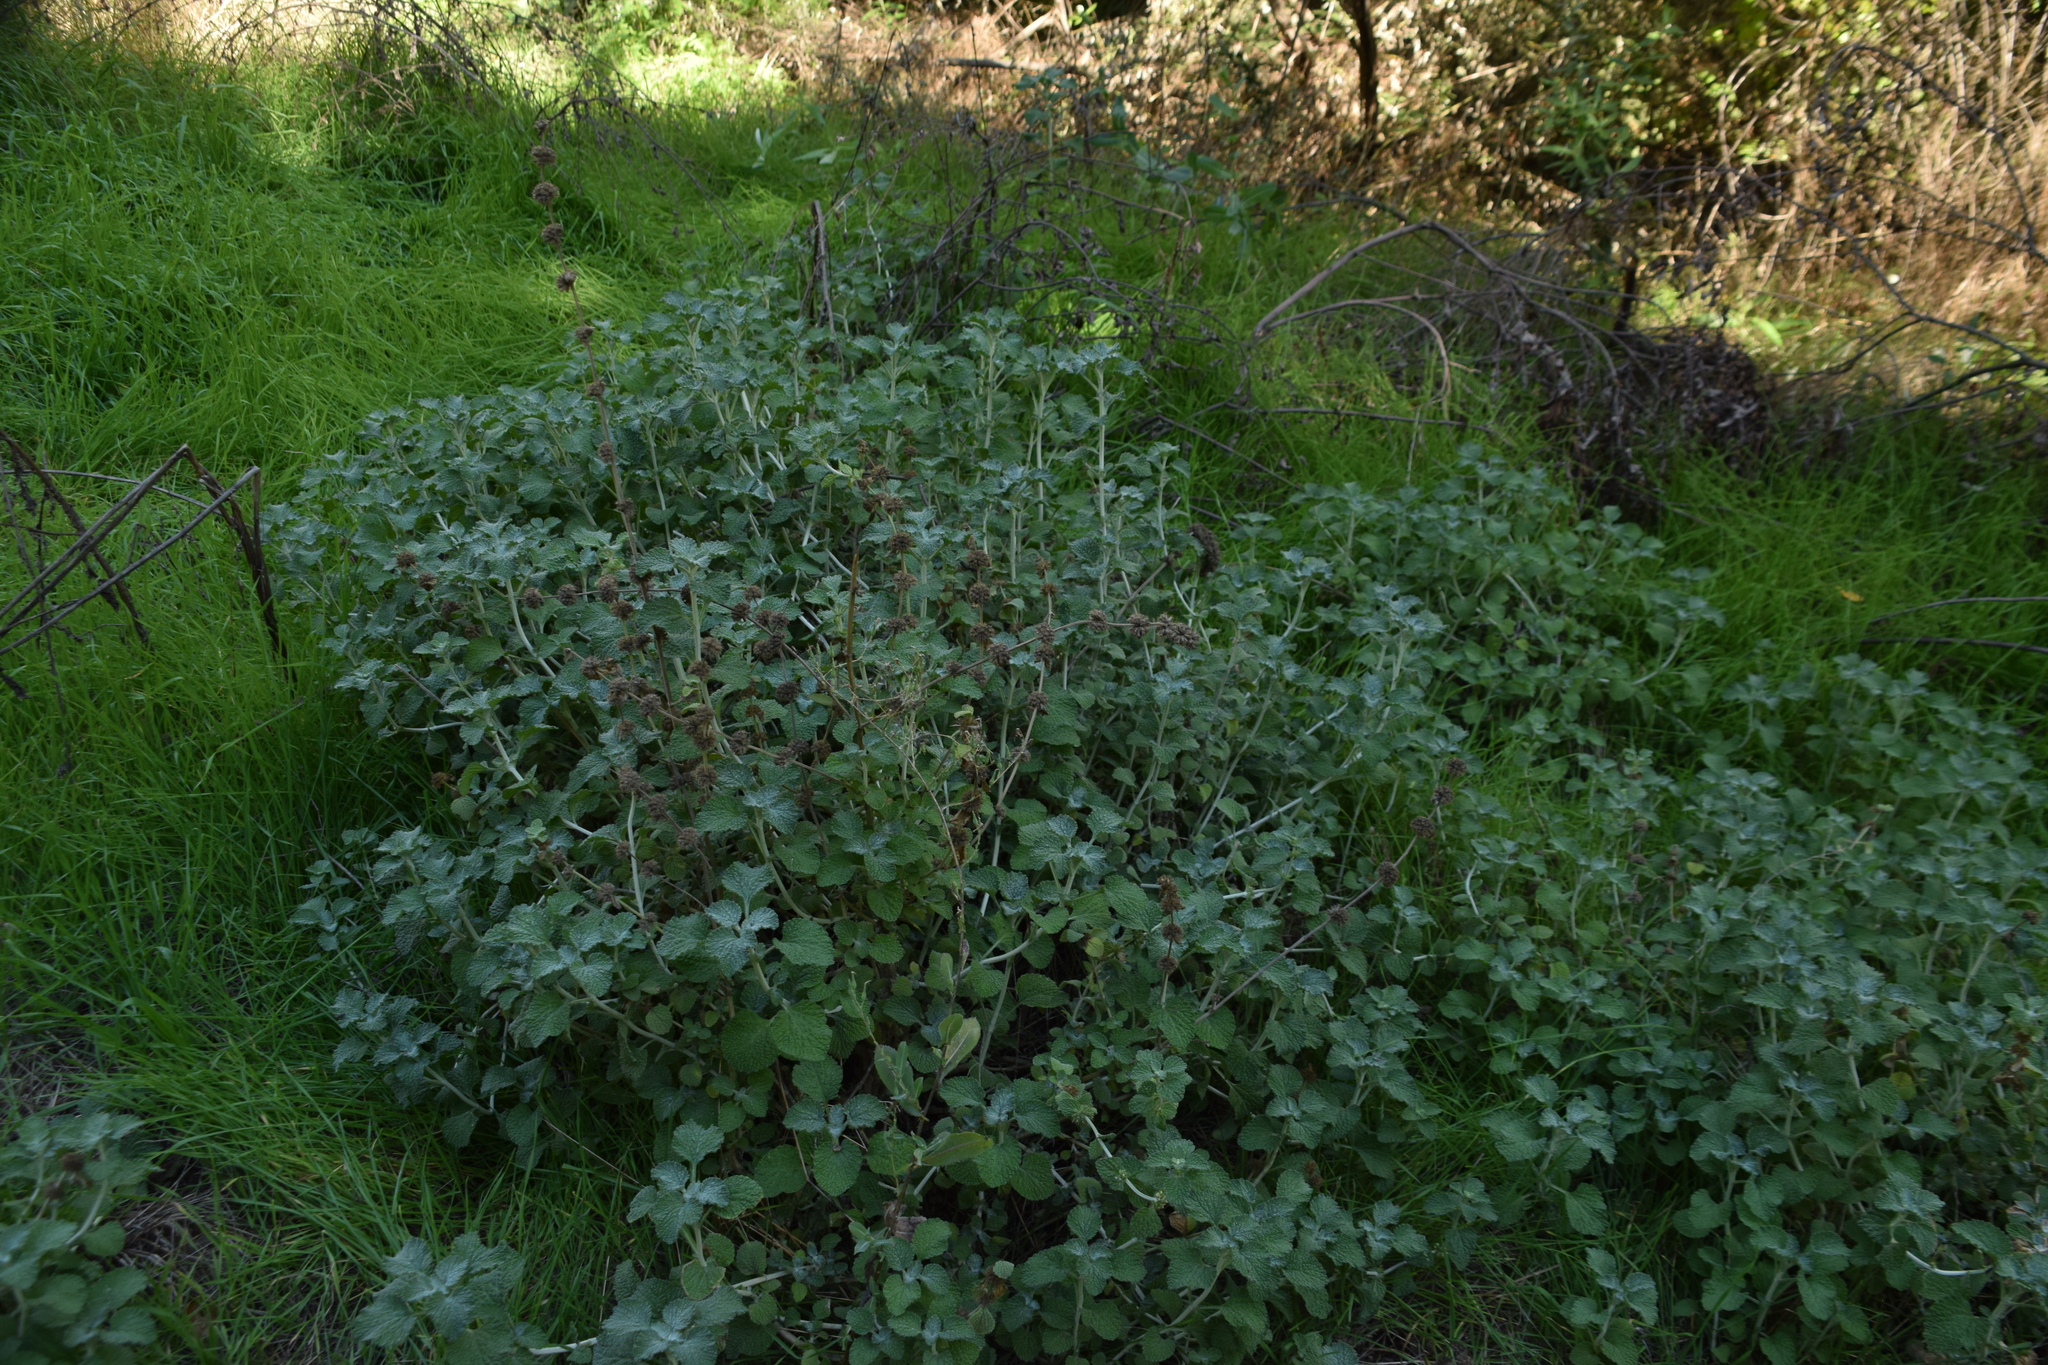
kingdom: Plantae
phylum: Tracheophyta
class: Magnoliopsida
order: Lamiales
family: Lamiaceae
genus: Marrubium
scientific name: Marrubium vulgare
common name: Horehound
